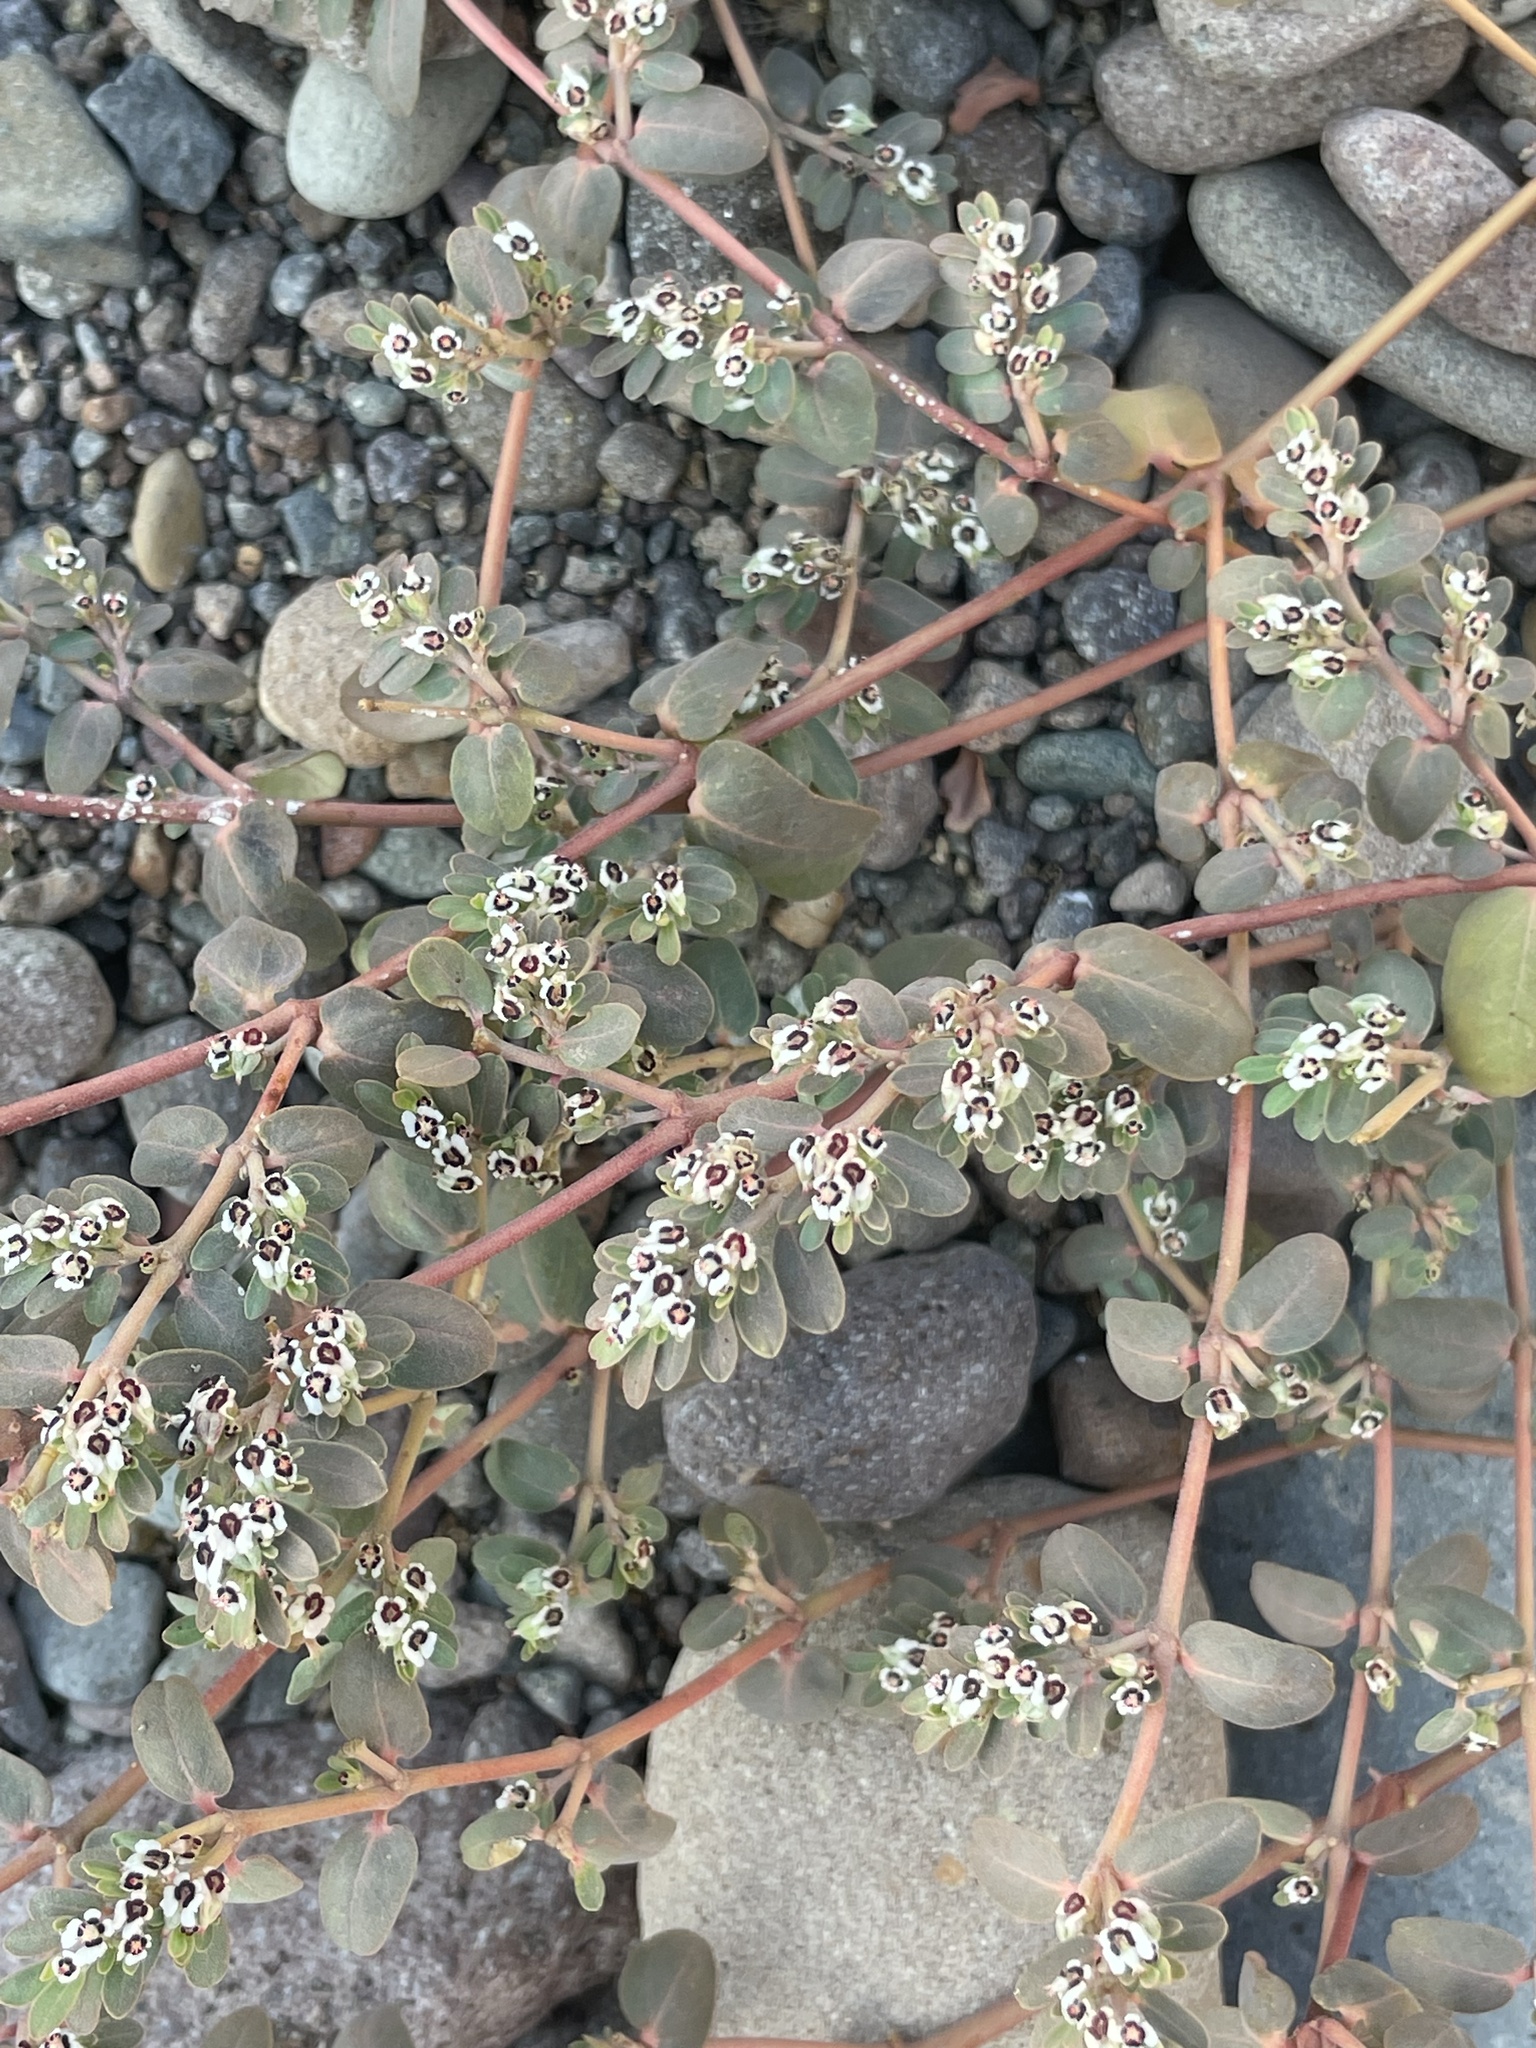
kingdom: Plantae
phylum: Tracheophyta
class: Magnoliopsida
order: Malpighiales
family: Euphorbiaceae
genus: Euphorbia
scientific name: Euphorbia pediculifera
